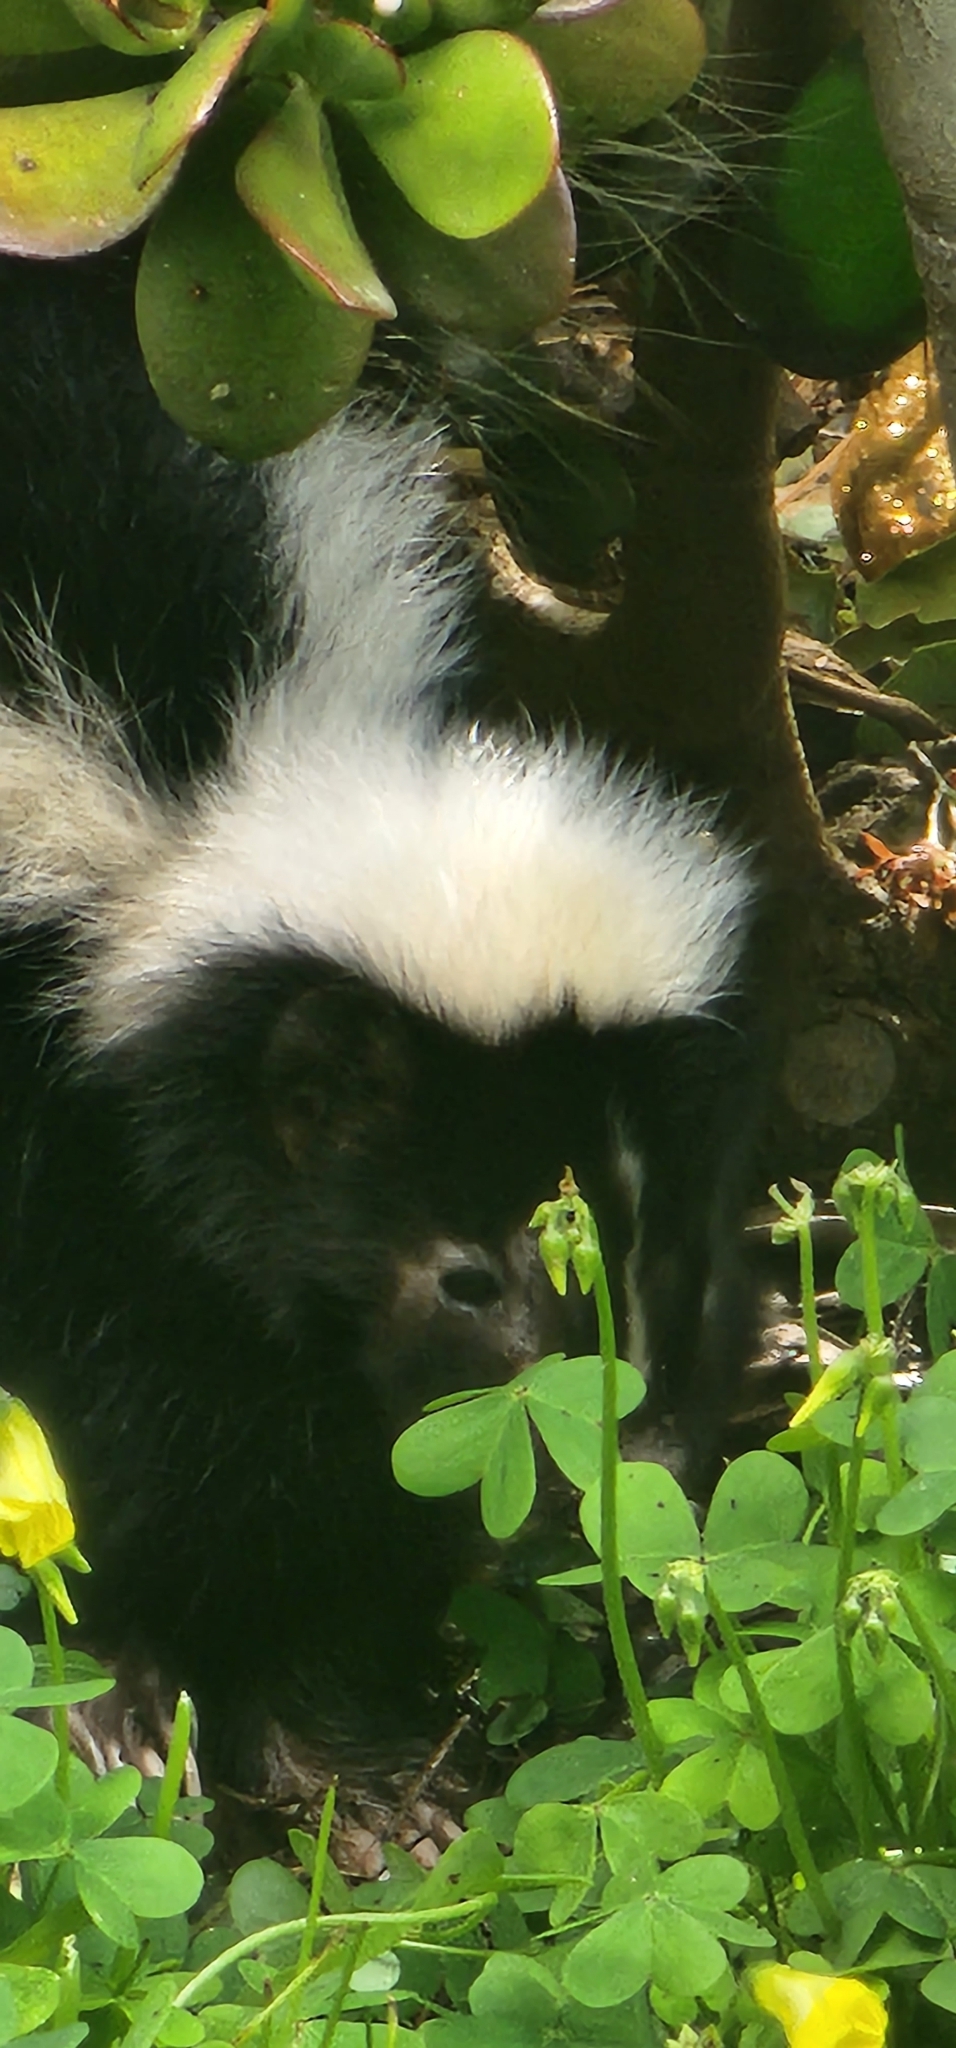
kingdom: Animalia
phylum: Chordata
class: Mammalia
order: Carnivora
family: Mephitidae
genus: Mephitis
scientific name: Mephitis mephitis
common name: Striped skunk
